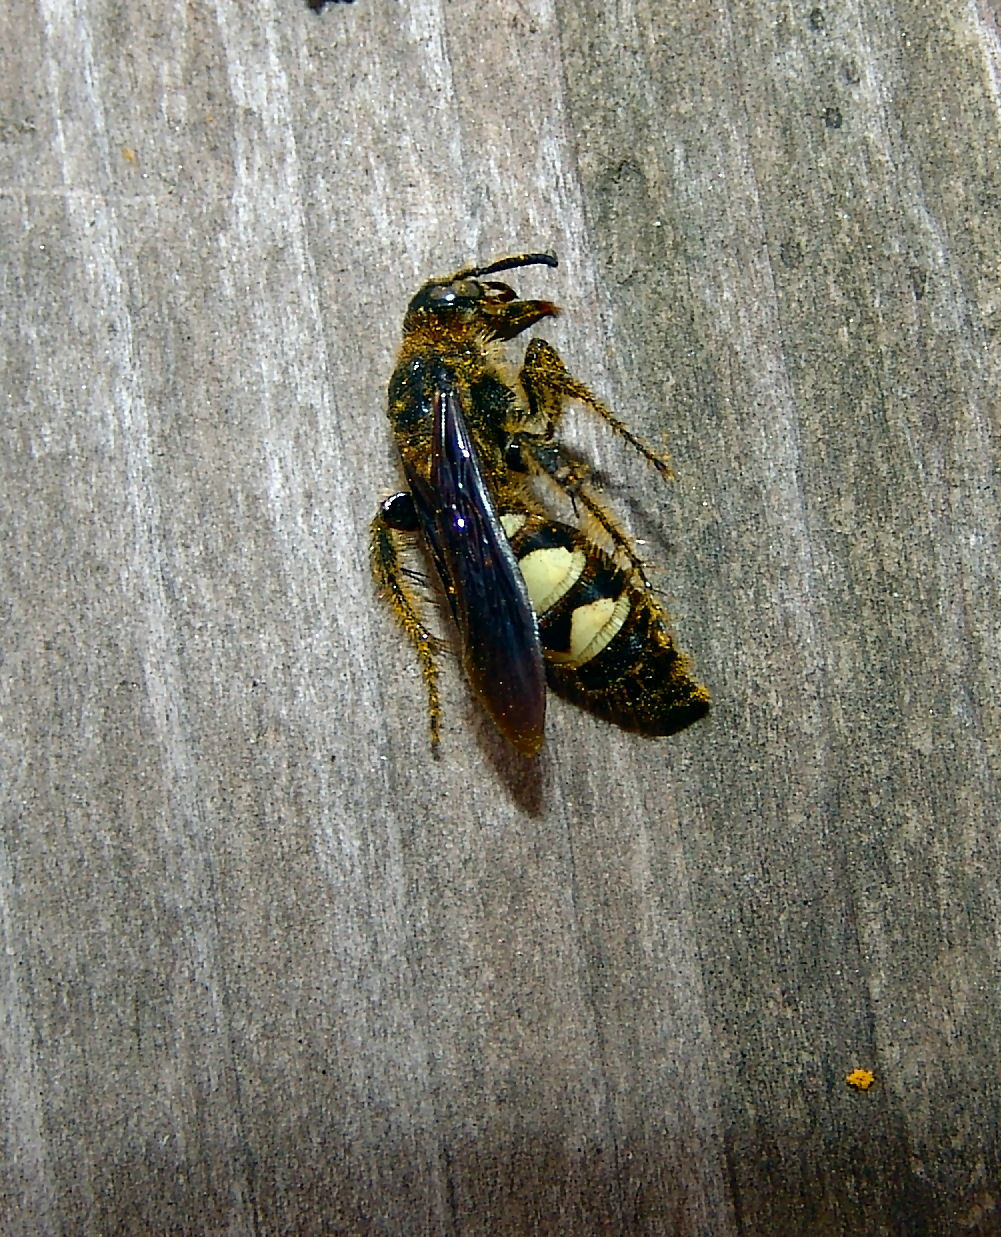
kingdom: Animalia
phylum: Arthropoda
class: Insecta
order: Hymenoptera
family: Scoliidae
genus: Dielis
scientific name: Dielis
